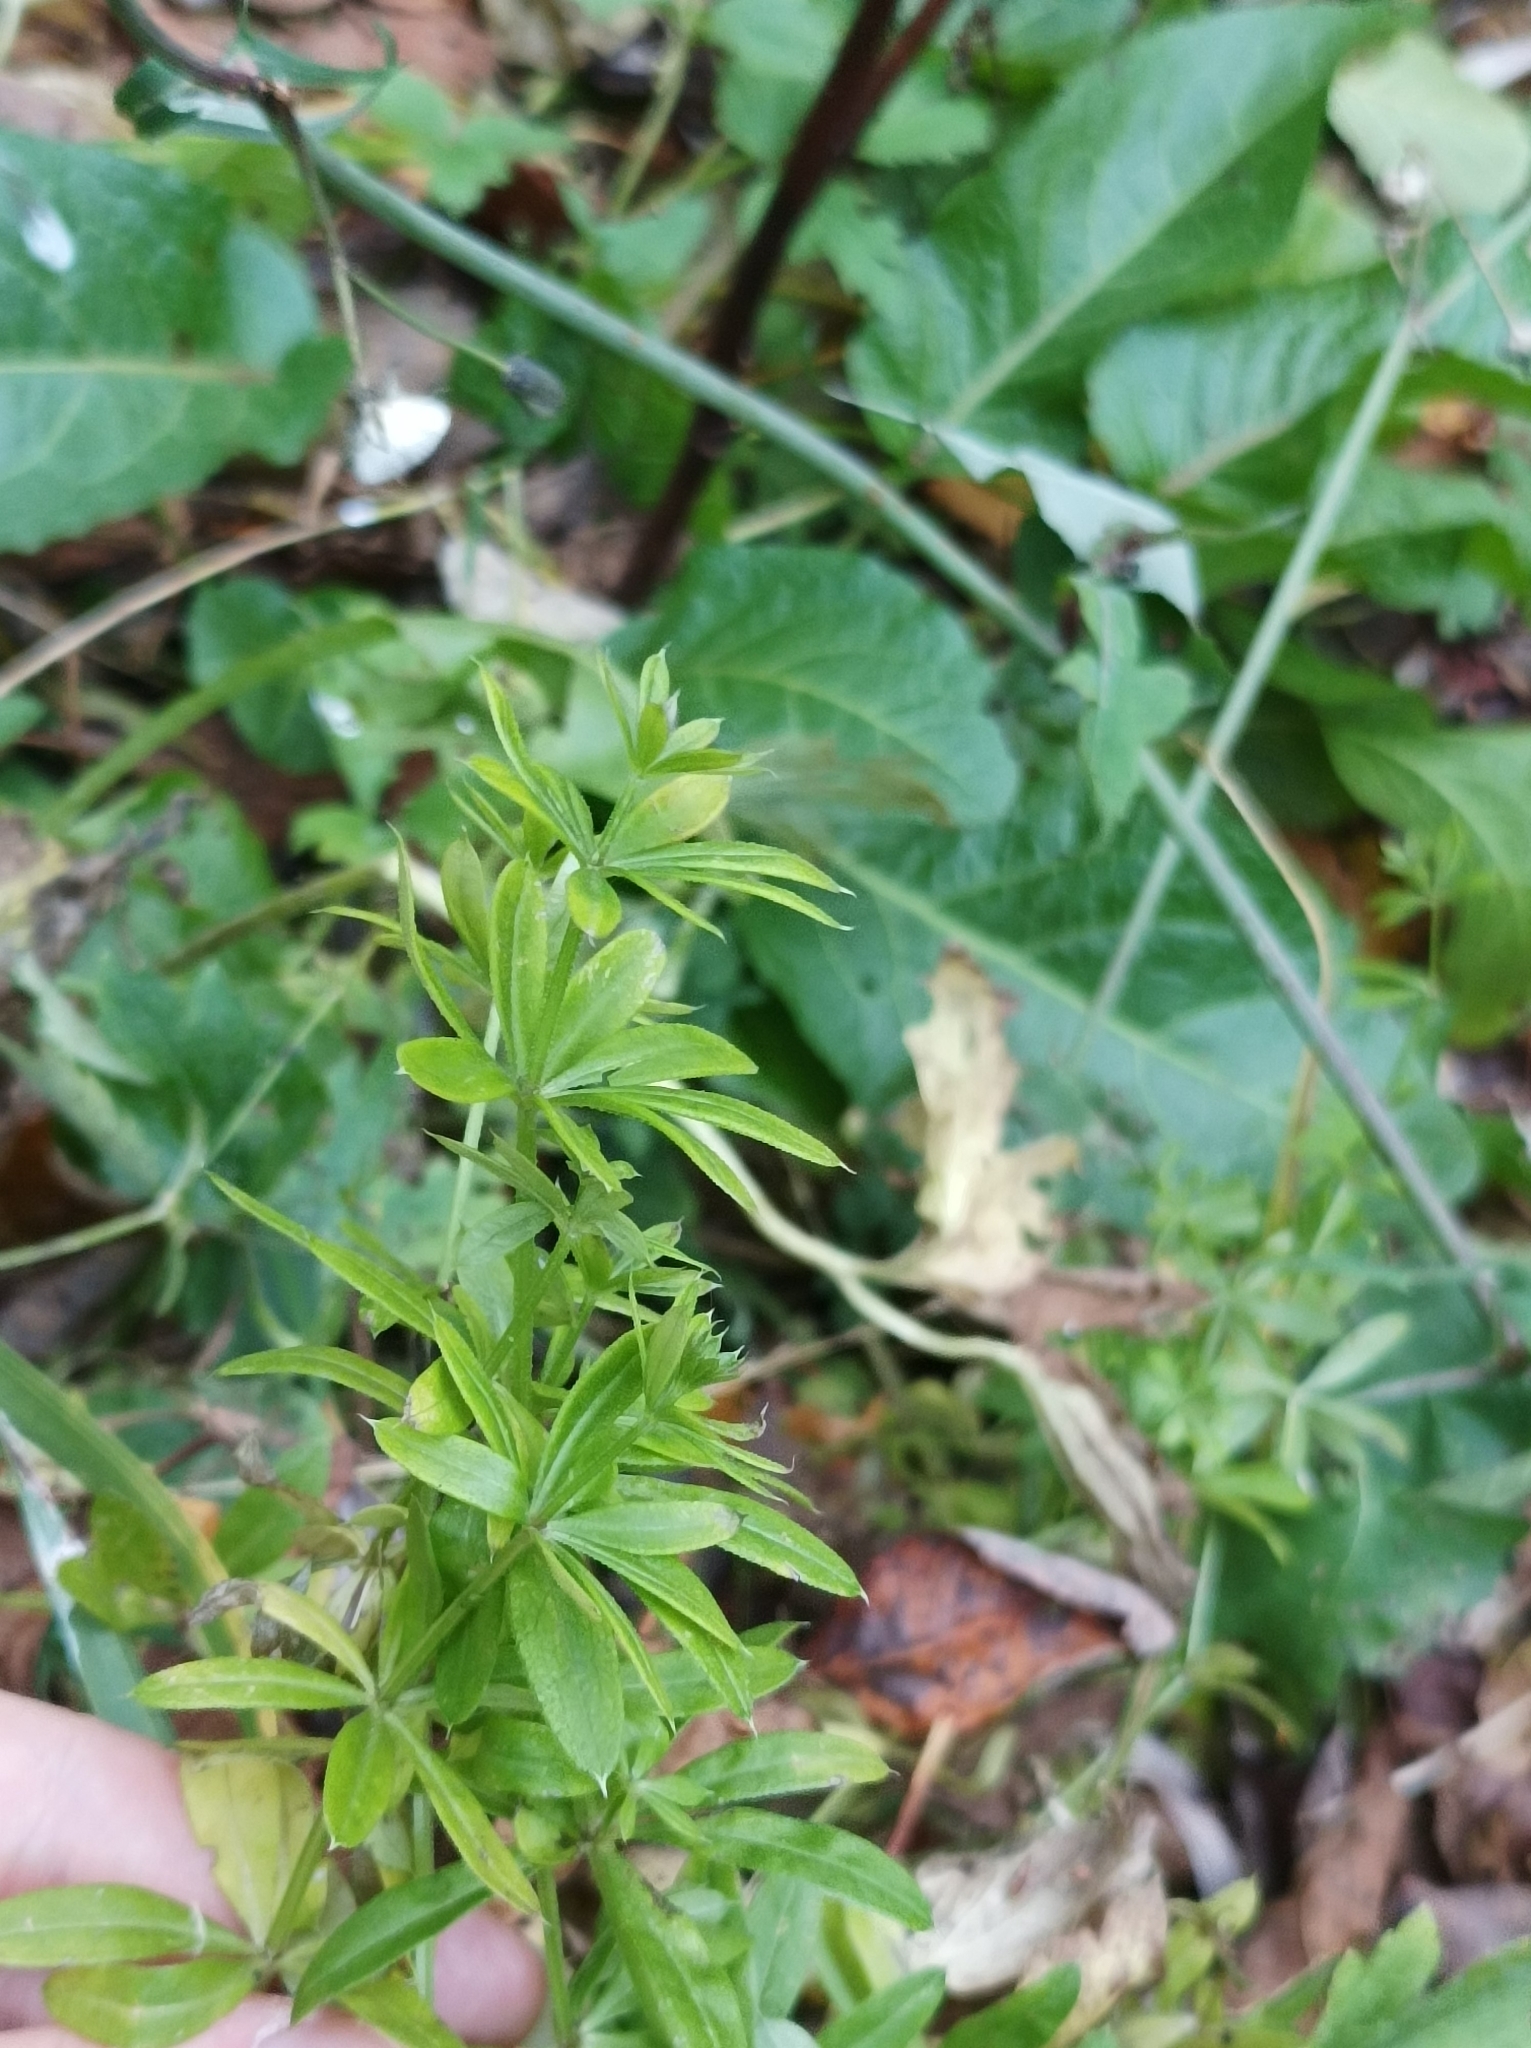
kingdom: Plantae
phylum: Tracheophyta
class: Magnoliopsida
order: Gentianales
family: Rubiaceae
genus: Galium
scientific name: Galium rivale
